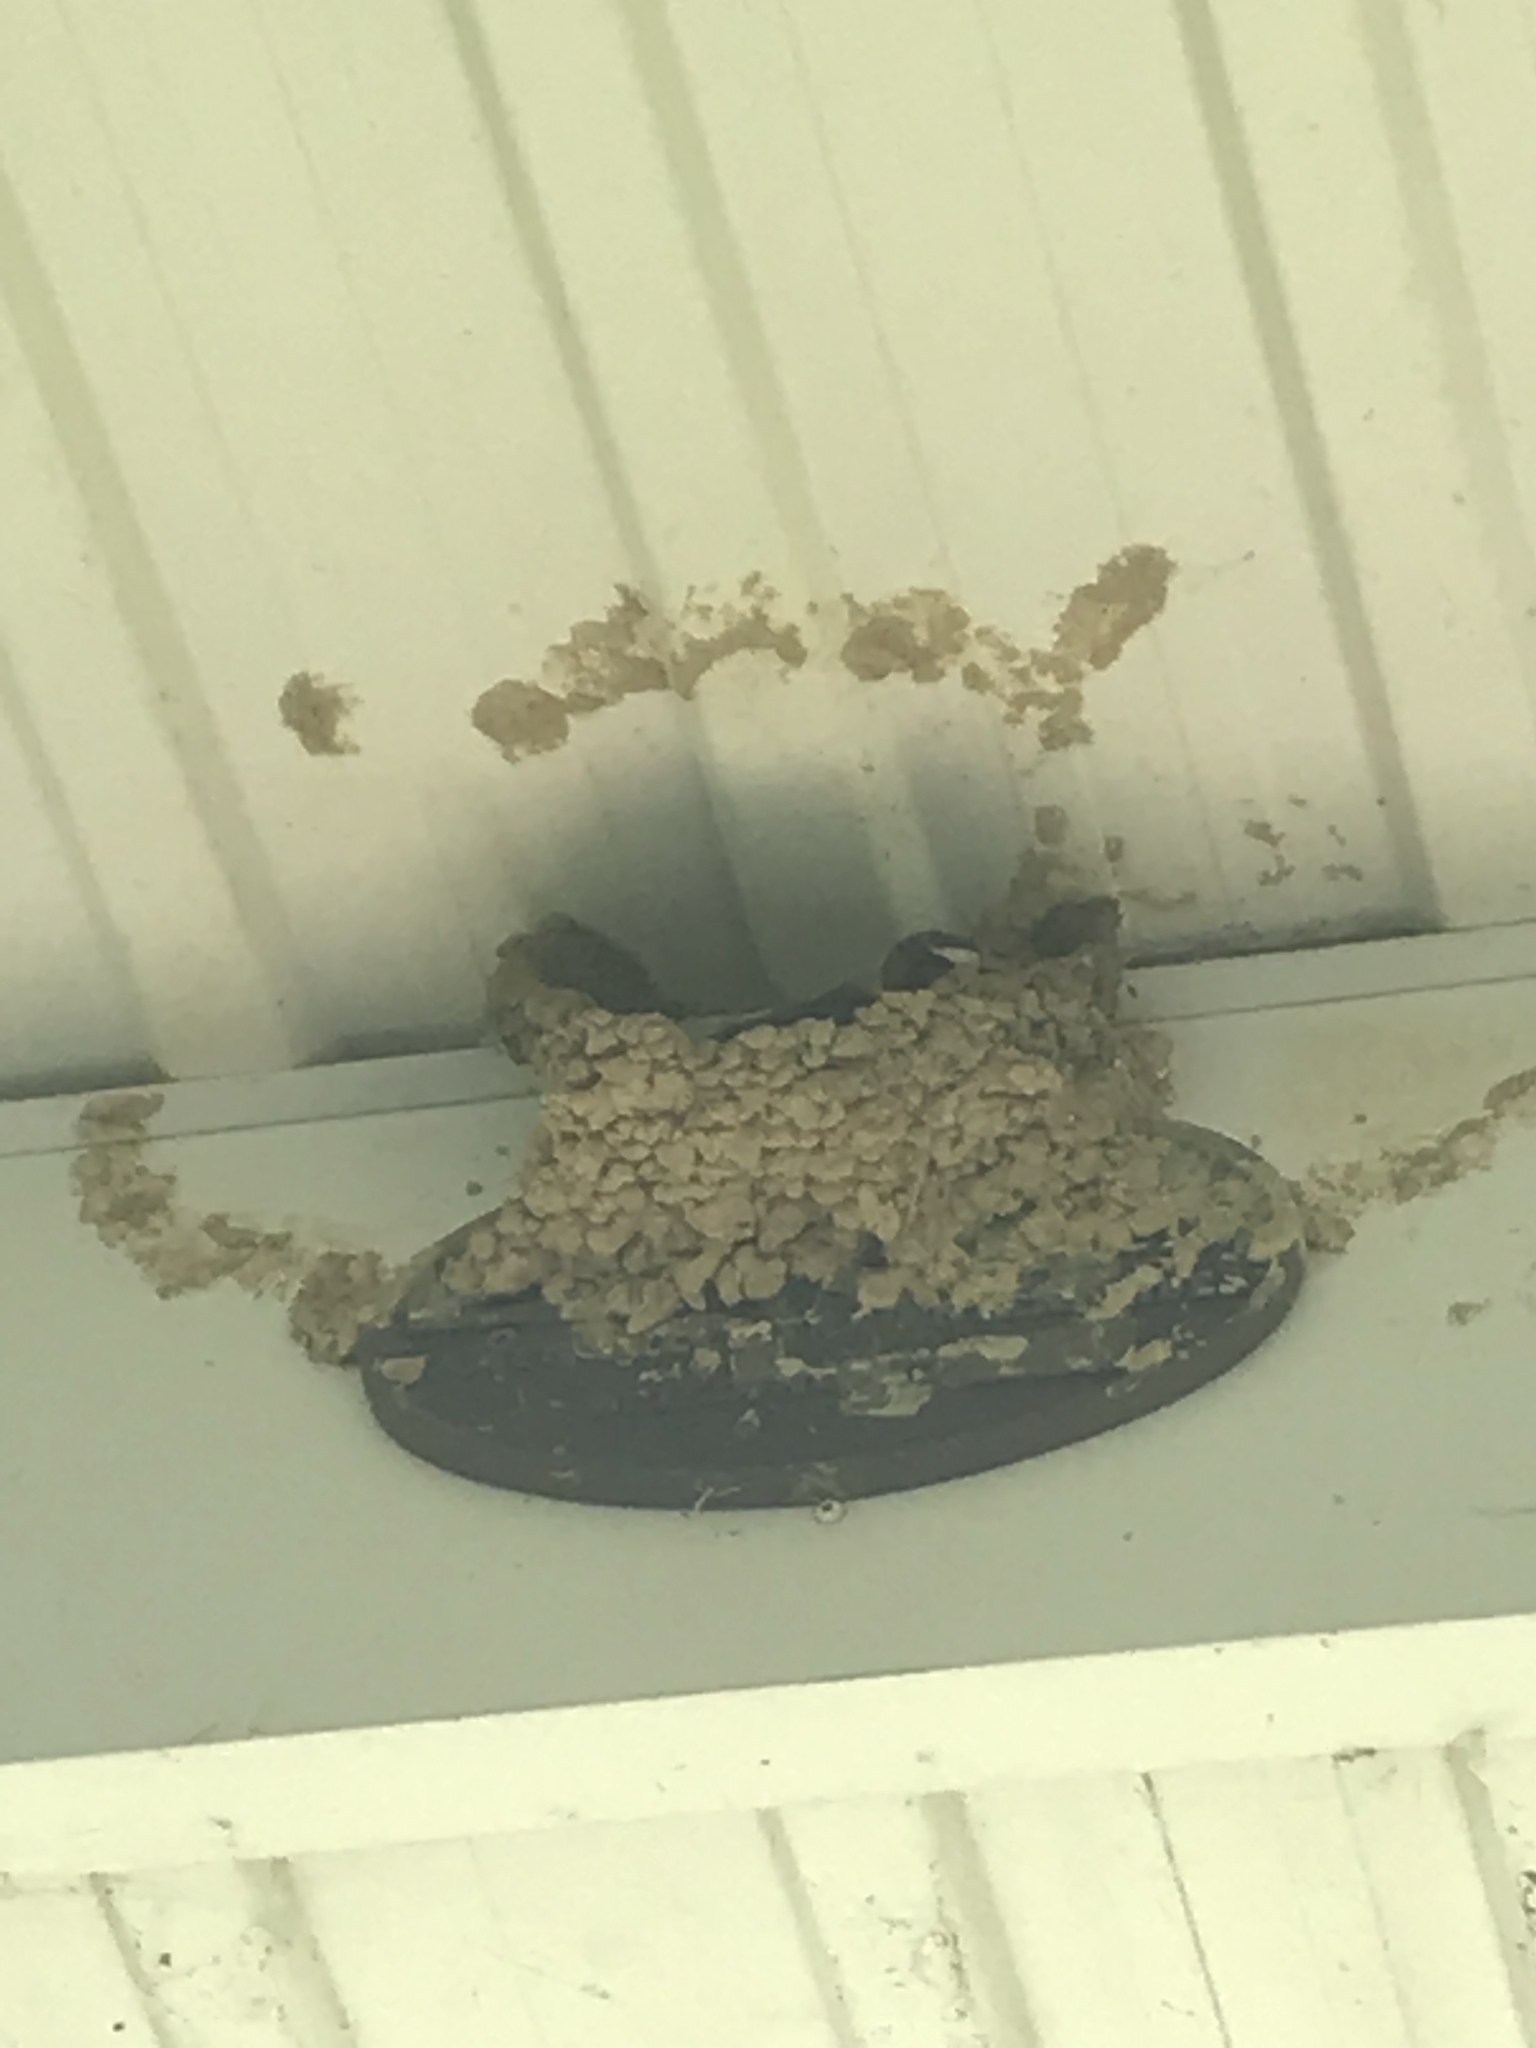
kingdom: Animalia
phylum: Chordata
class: Aves
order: Passeriformes
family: Hirundinidae
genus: Petrochelidon
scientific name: Petrochelidon pyrrhonota
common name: American cliff swallow
